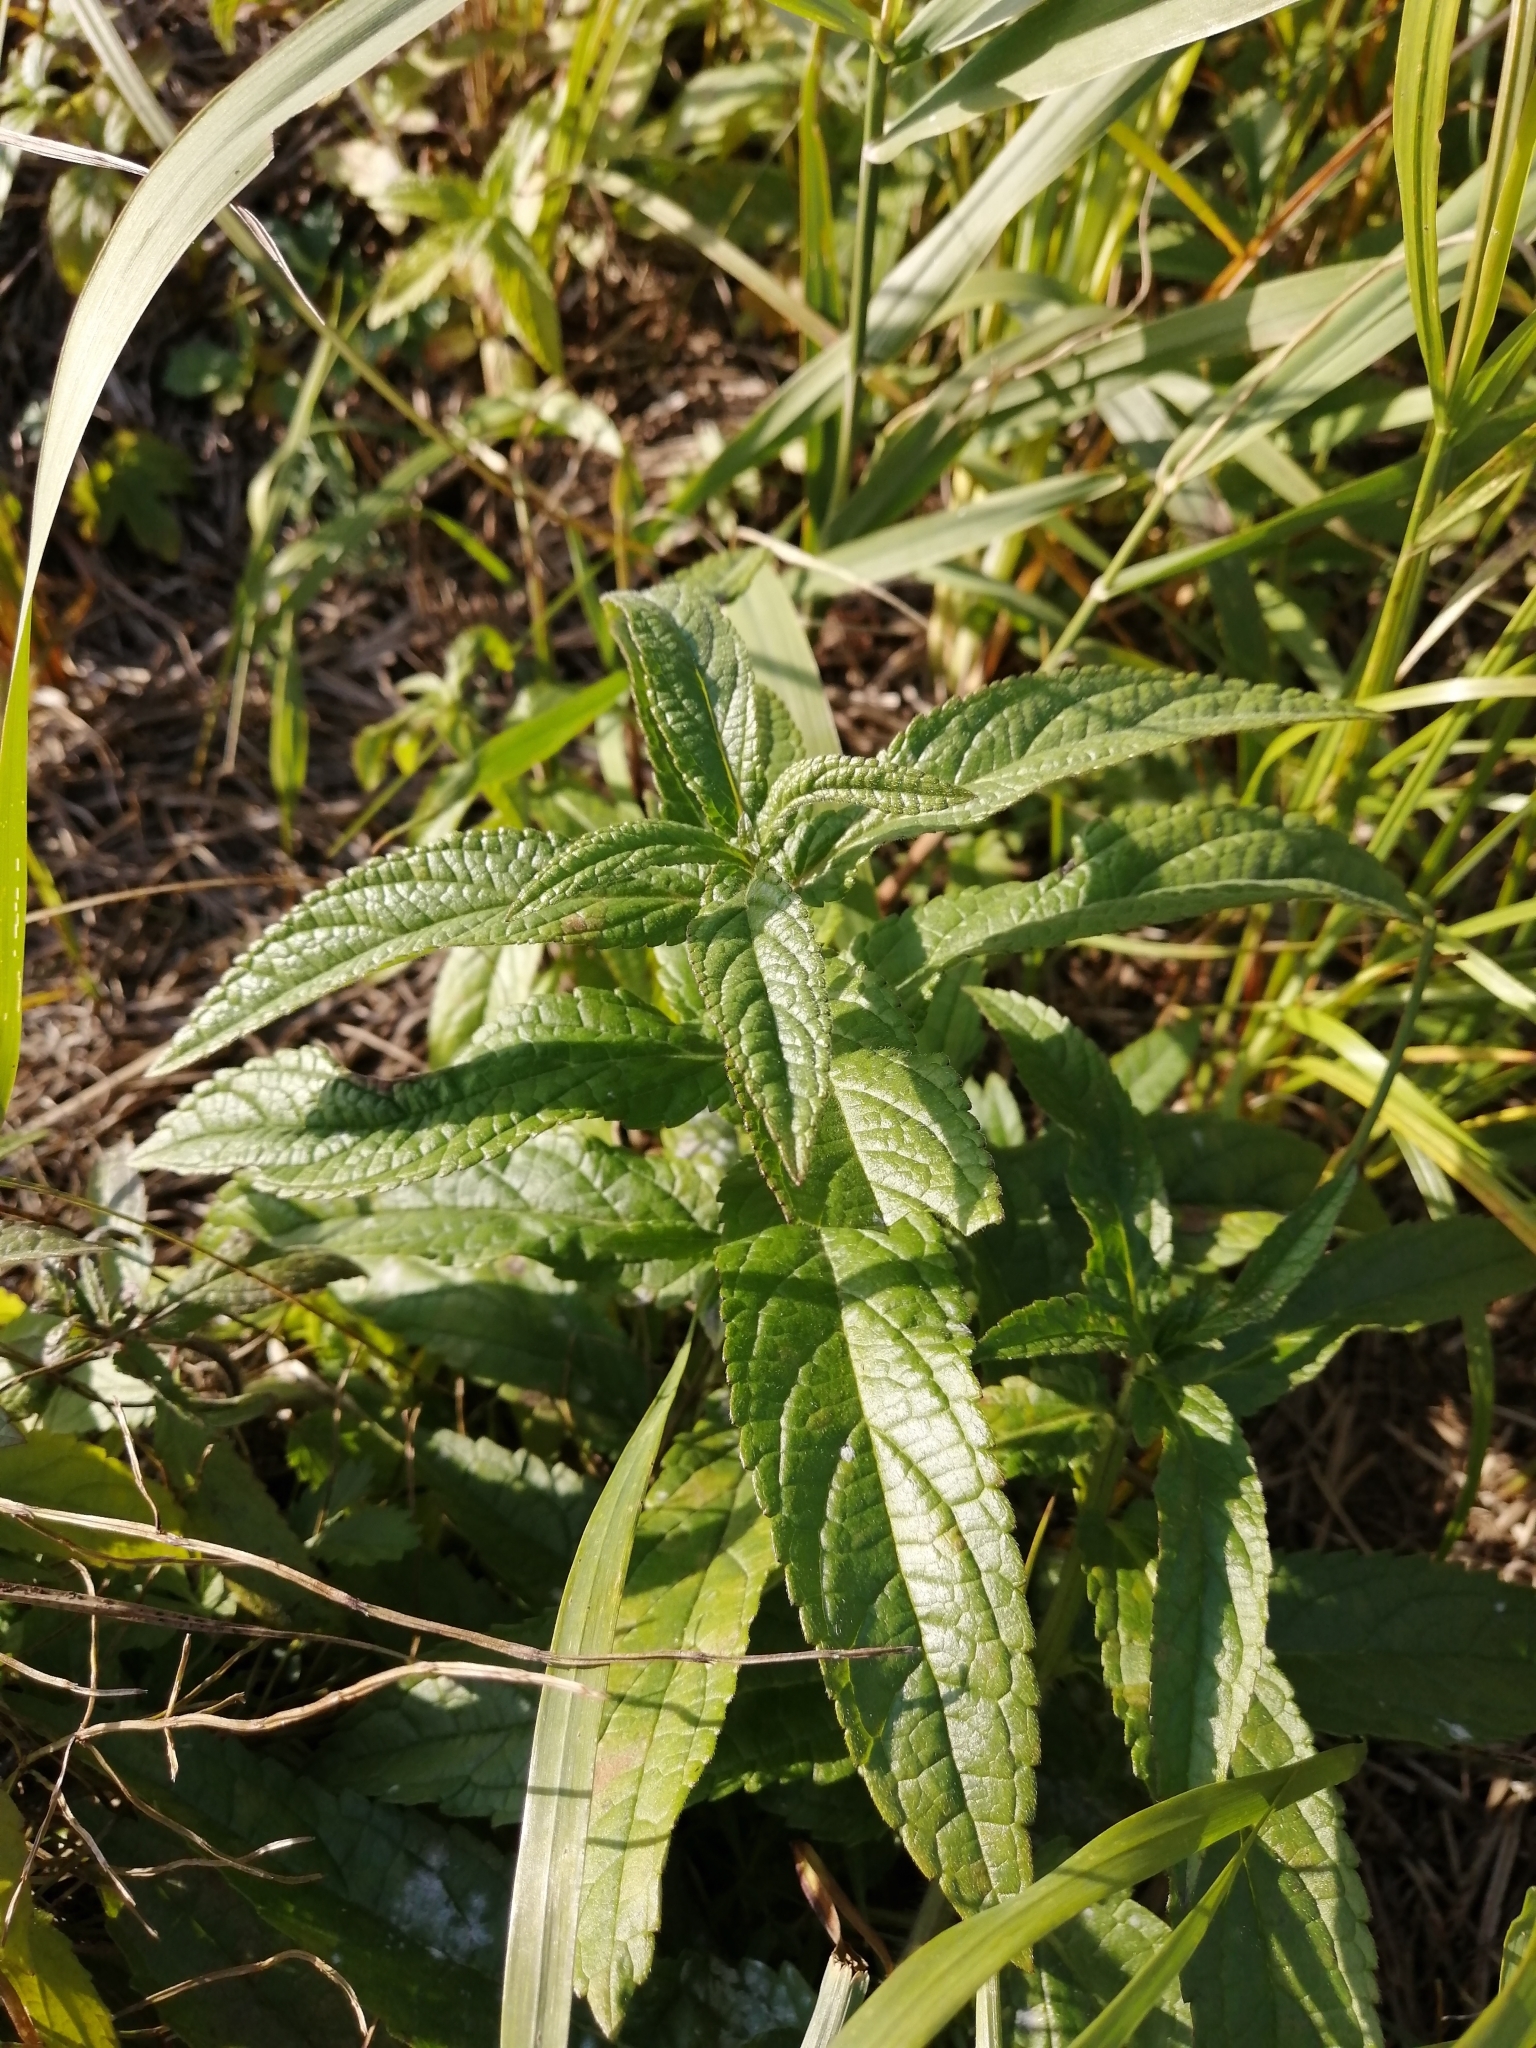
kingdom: Plantae
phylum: Tracheophyta
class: Magnoliopsida
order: Lamiales
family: Lamiaceae
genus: Stachys
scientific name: Stachys palustris
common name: Marsh woundwort
